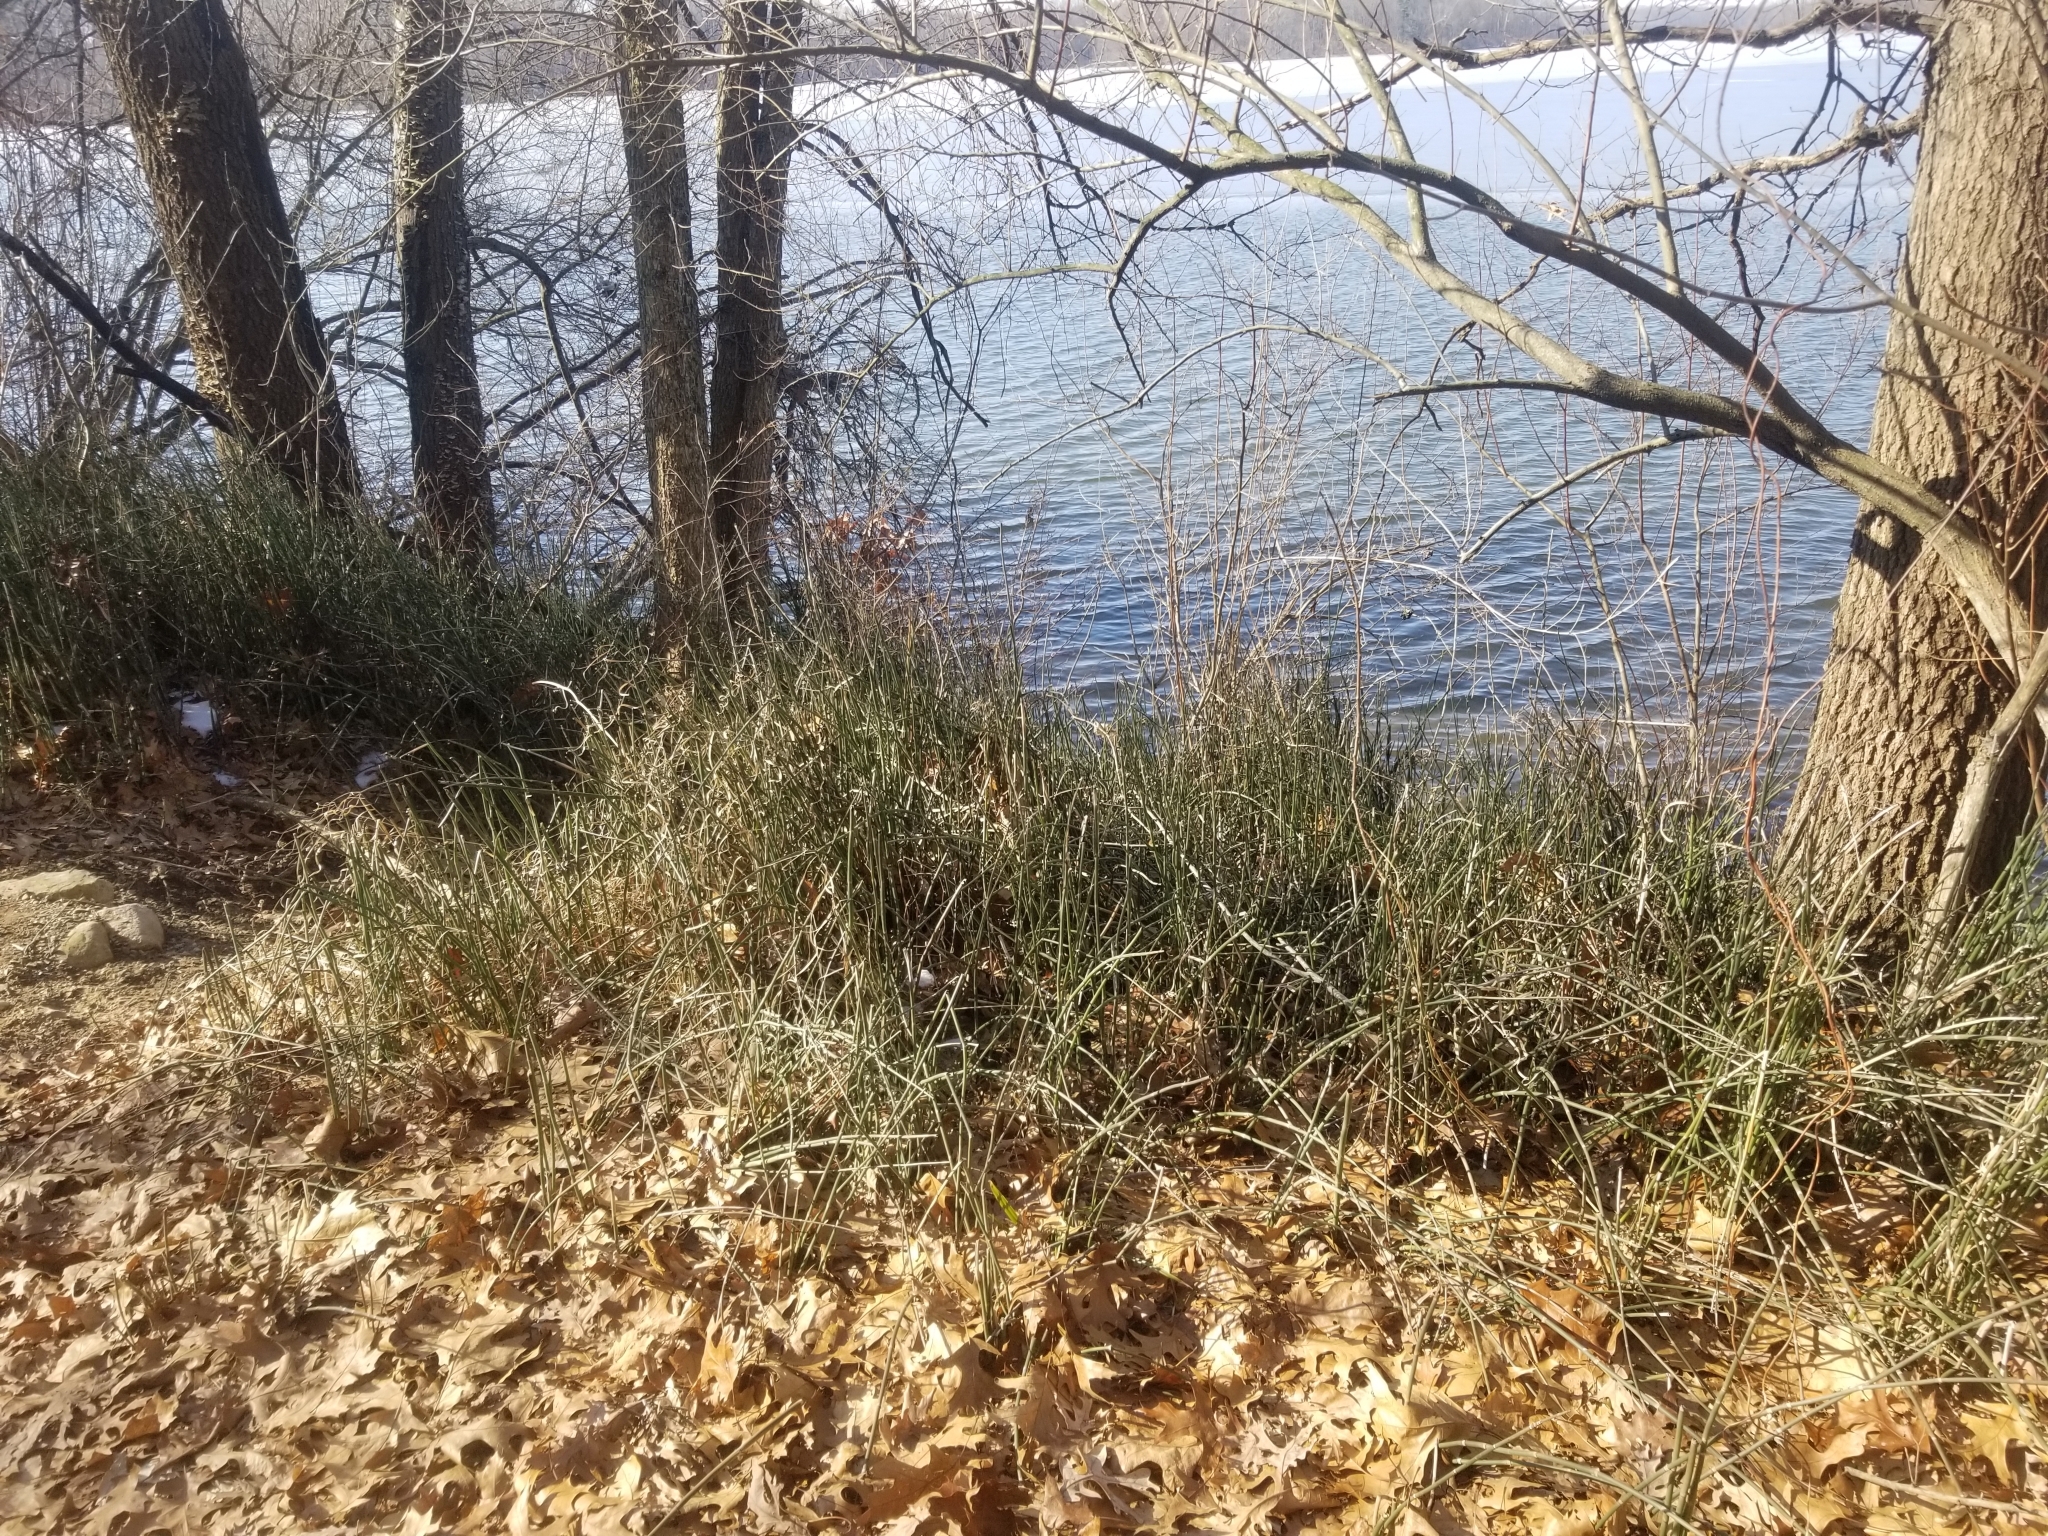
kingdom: Plantae
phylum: Tracheophyta
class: Polypodiopsida
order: Equisetales
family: Equisetaceae
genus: Equisetum
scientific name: Equisetum praealtum
